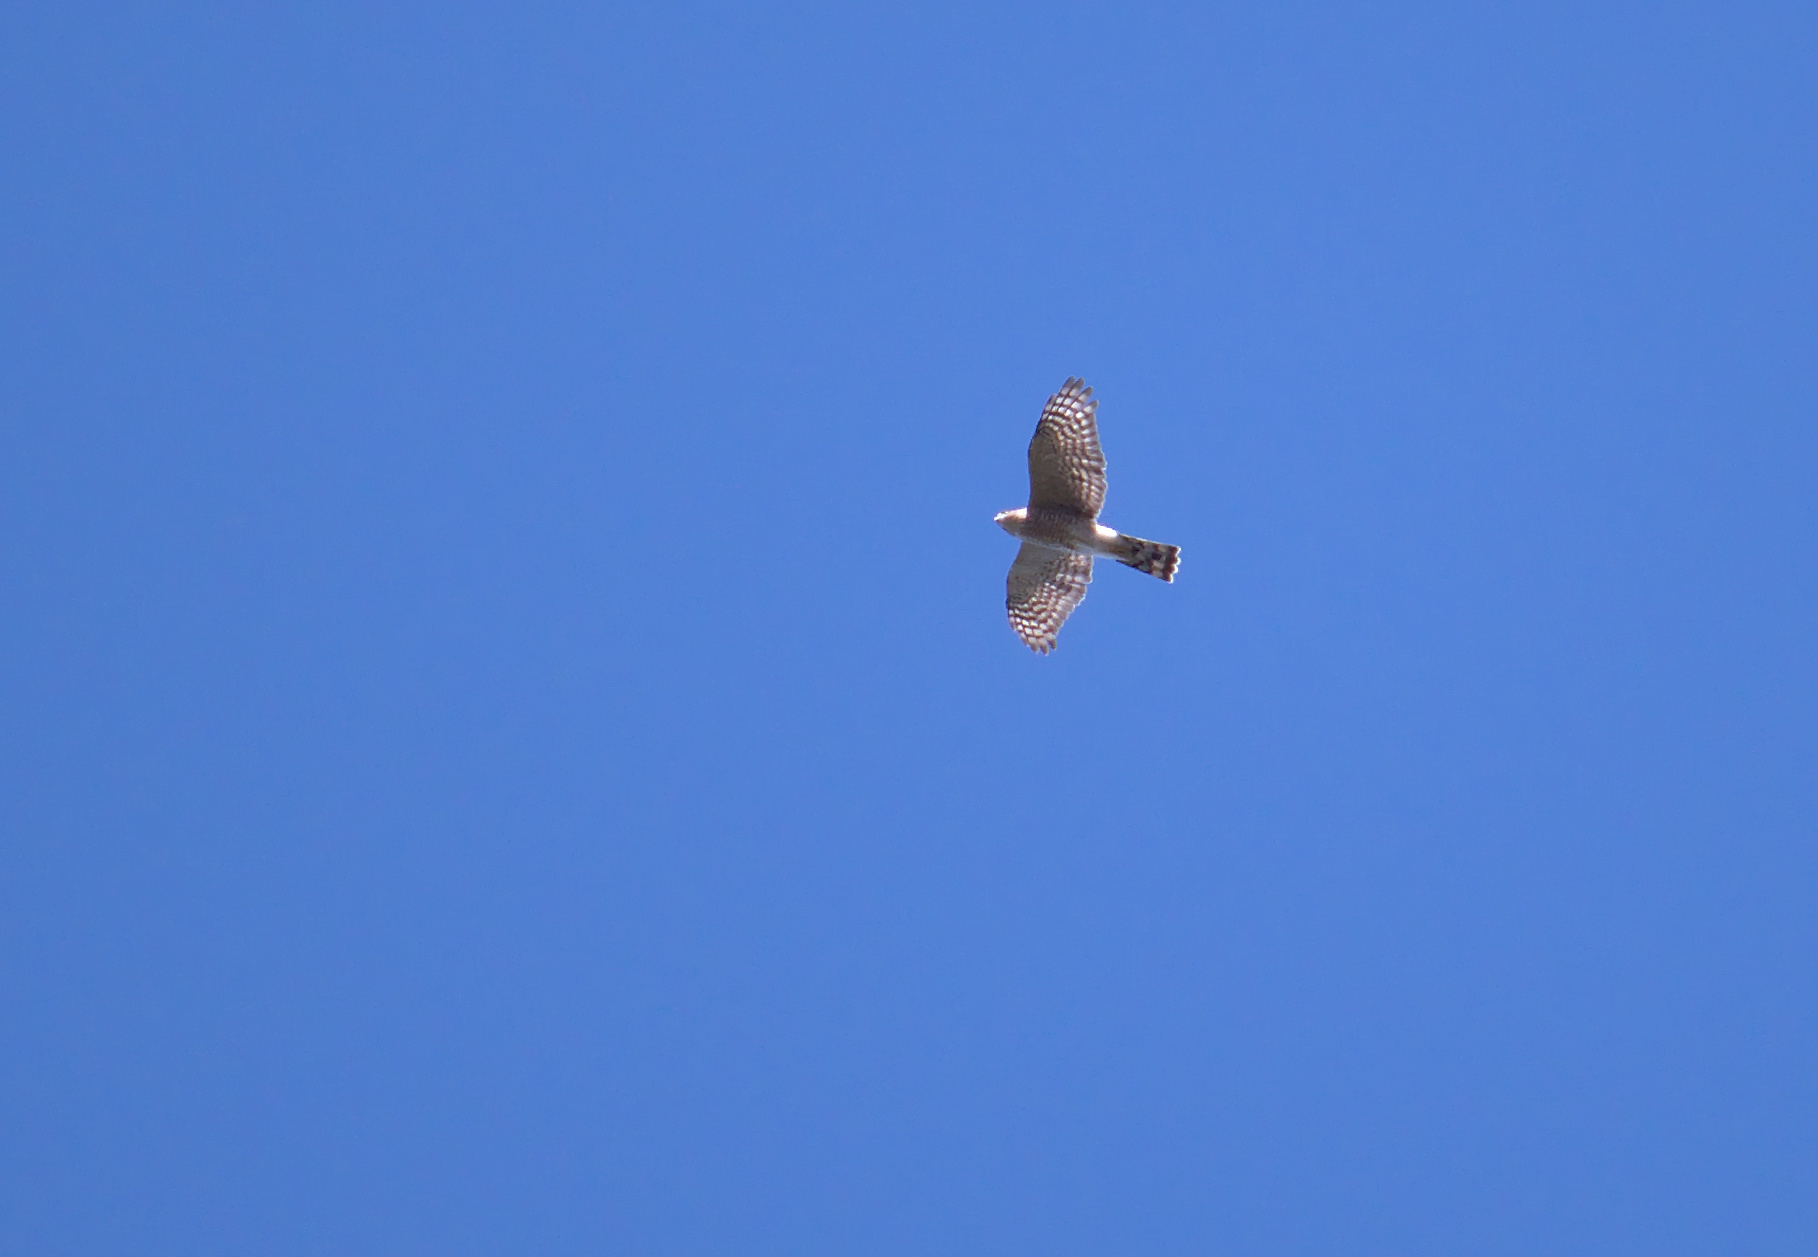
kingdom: Animalia
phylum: Chordata
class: Aves
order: Accipitriformes
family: Accipitridae
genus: Accipiter
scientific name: Accipiter striatus
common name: Sharp-shinned hawk
